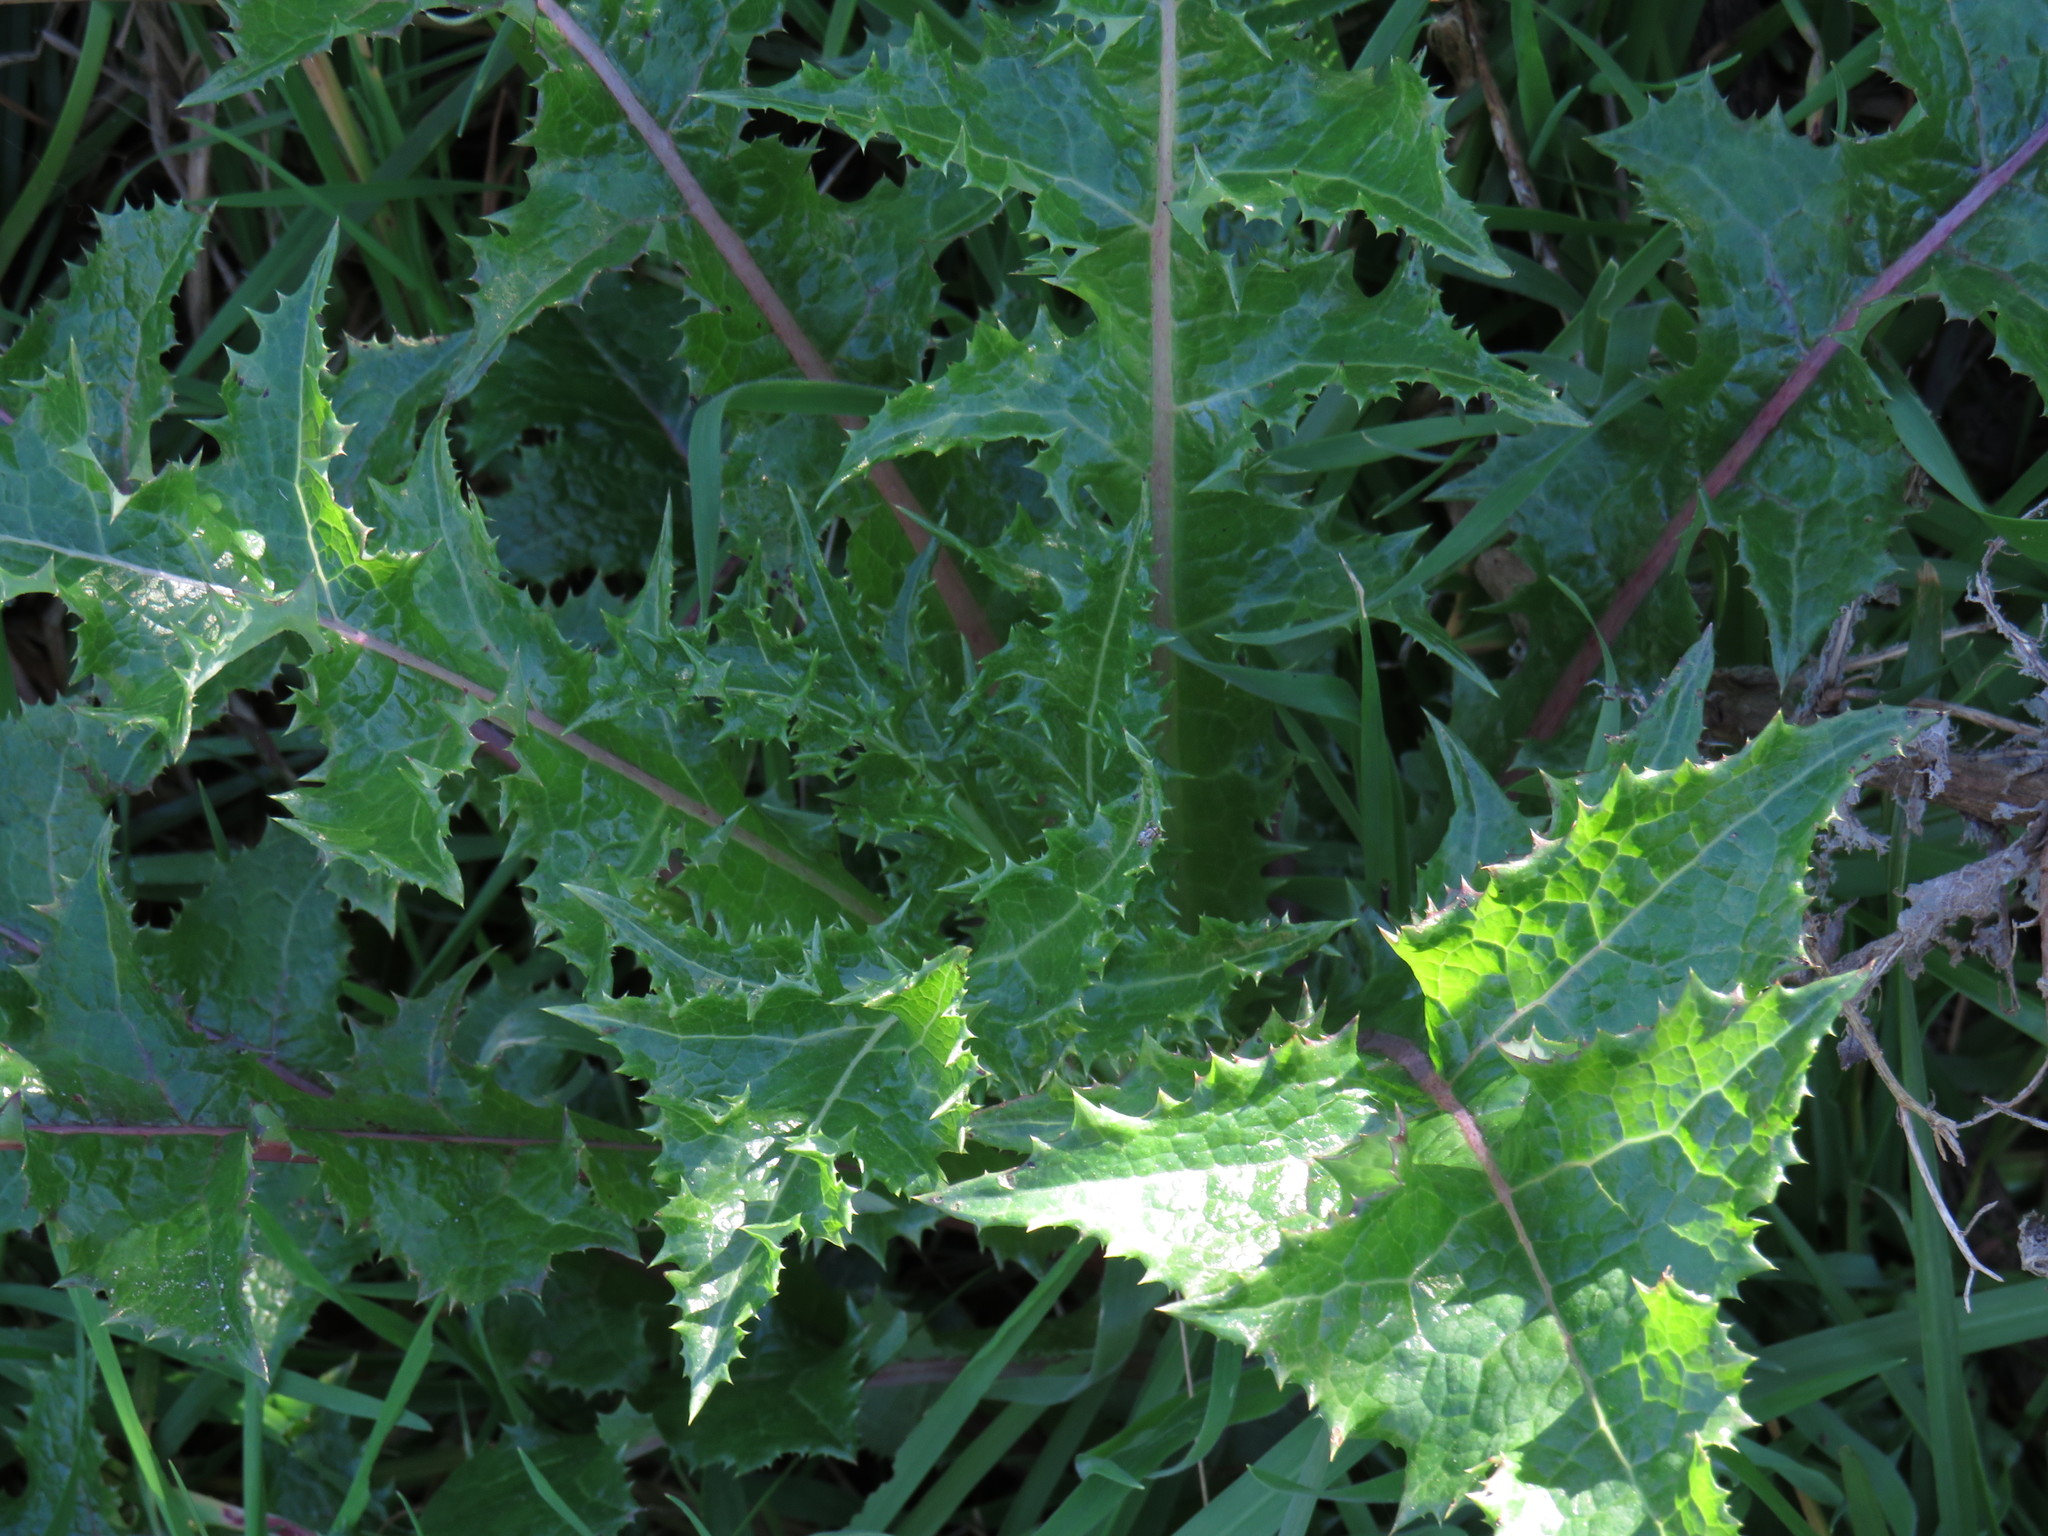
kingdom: Plantae
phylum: Tracheophyta
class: Magnoliopsida
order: Asterales
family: Asteraceae
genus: Sonchus
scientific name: Sonchus asper
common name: Prickly sow-thistle
